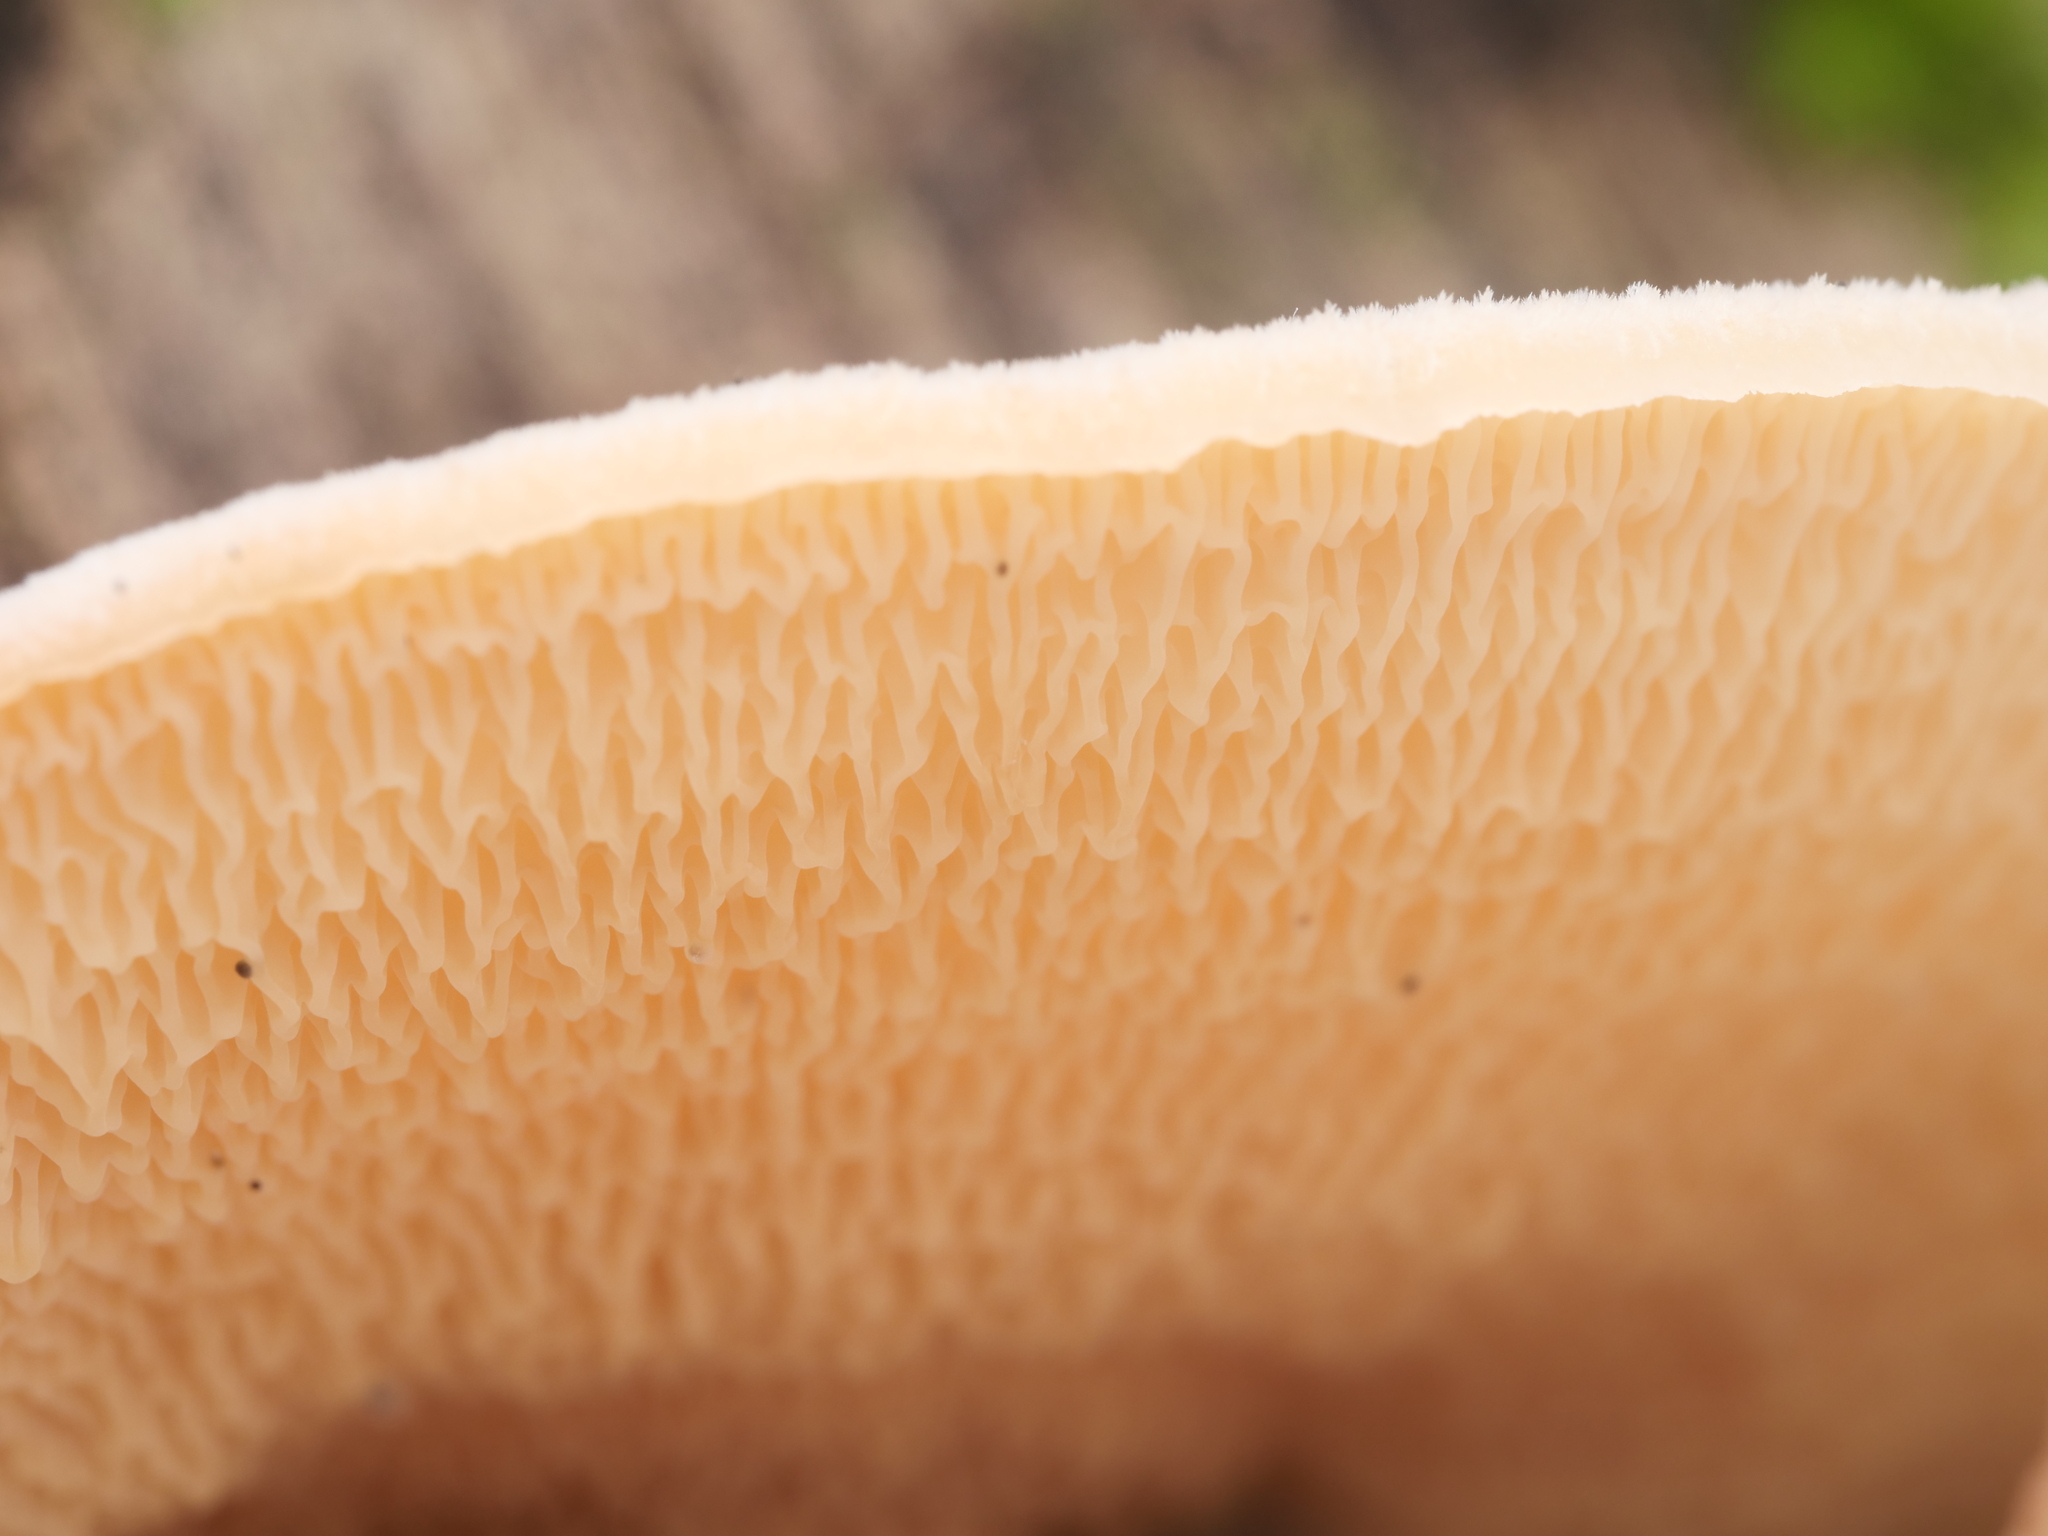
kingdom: Fungi
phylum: Basidiomycota
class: Agaricomycetes
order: Polyporales
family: Meruliaceae
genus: Phlebia
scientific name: Phlebia tremellosa
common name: Jelly rot
